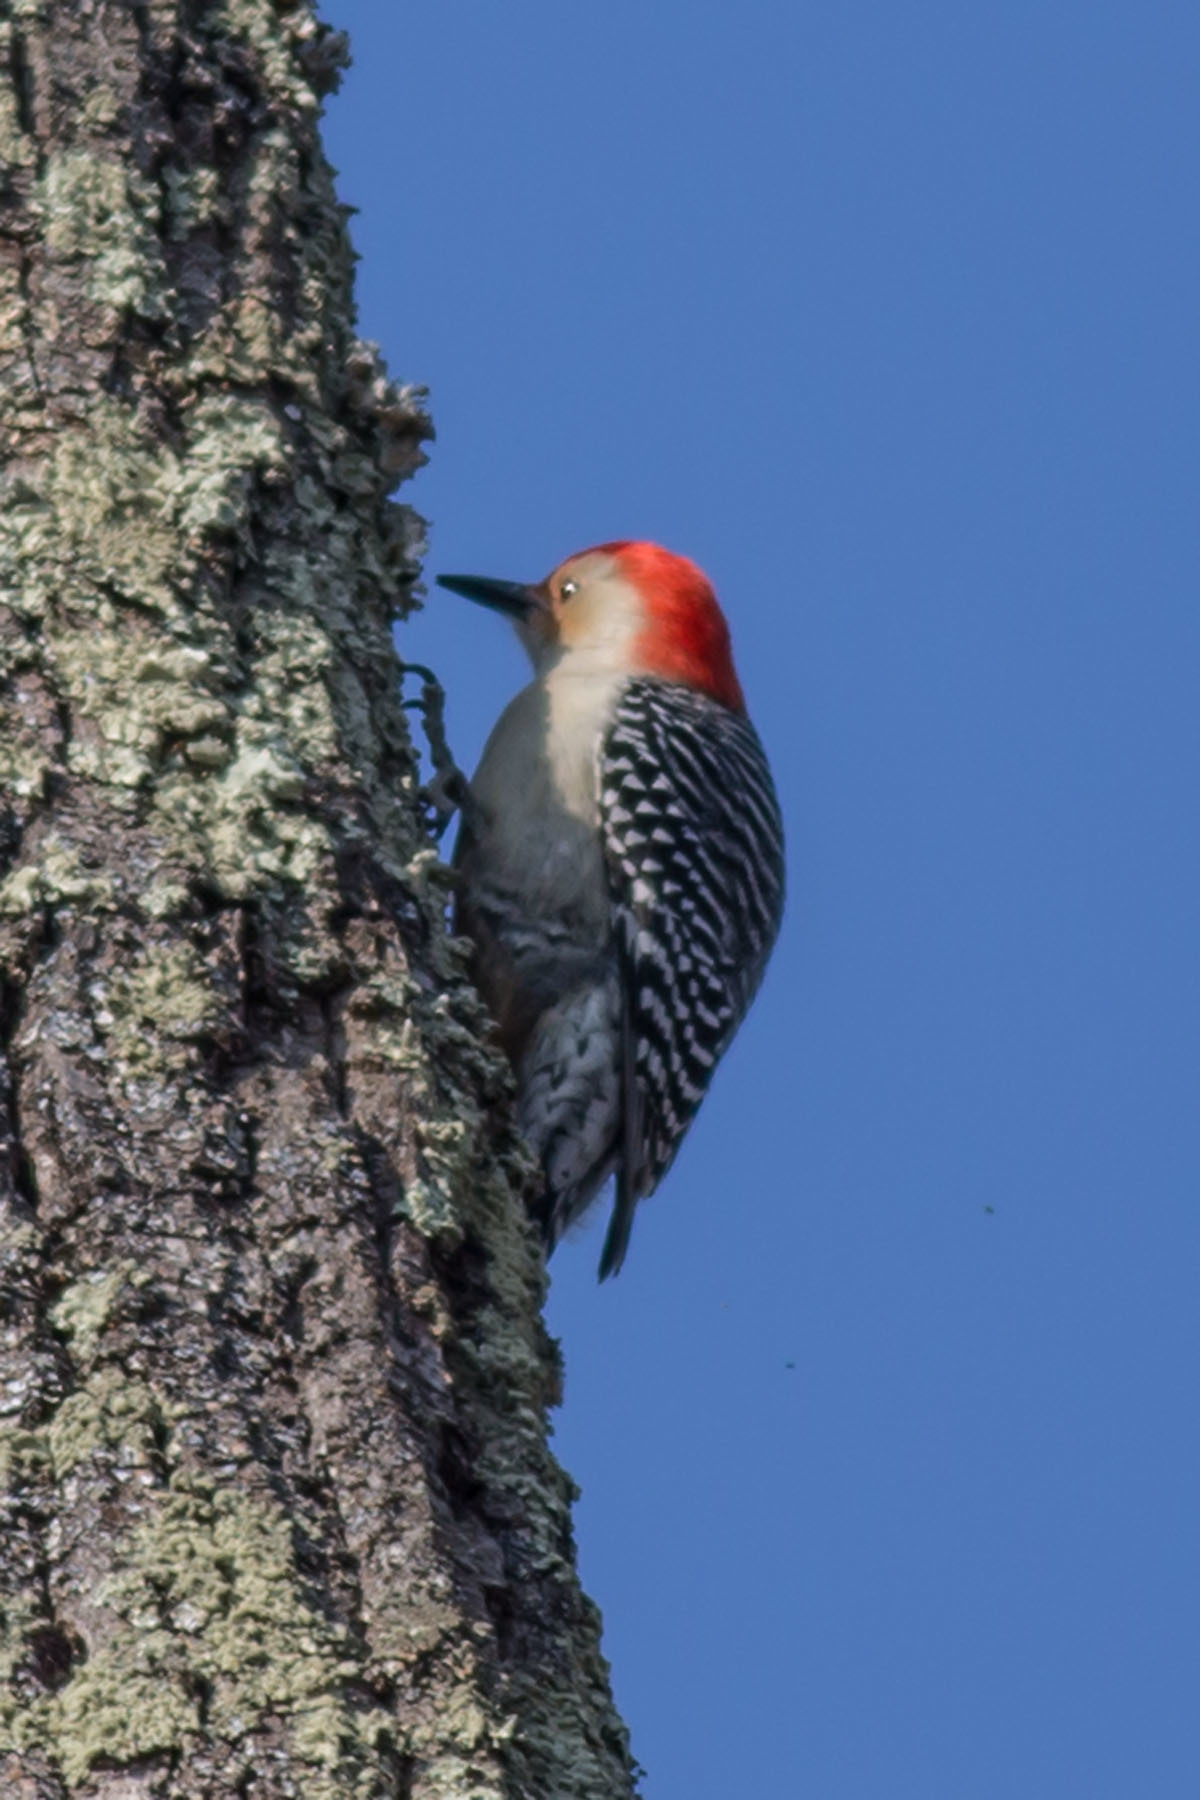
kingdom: Animalia
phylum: Chordata
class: Aves
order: Piciformes
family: Picidae
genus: Melanerpes
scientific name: Melanerpes carolinus
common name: Red-bellied woodpecker
